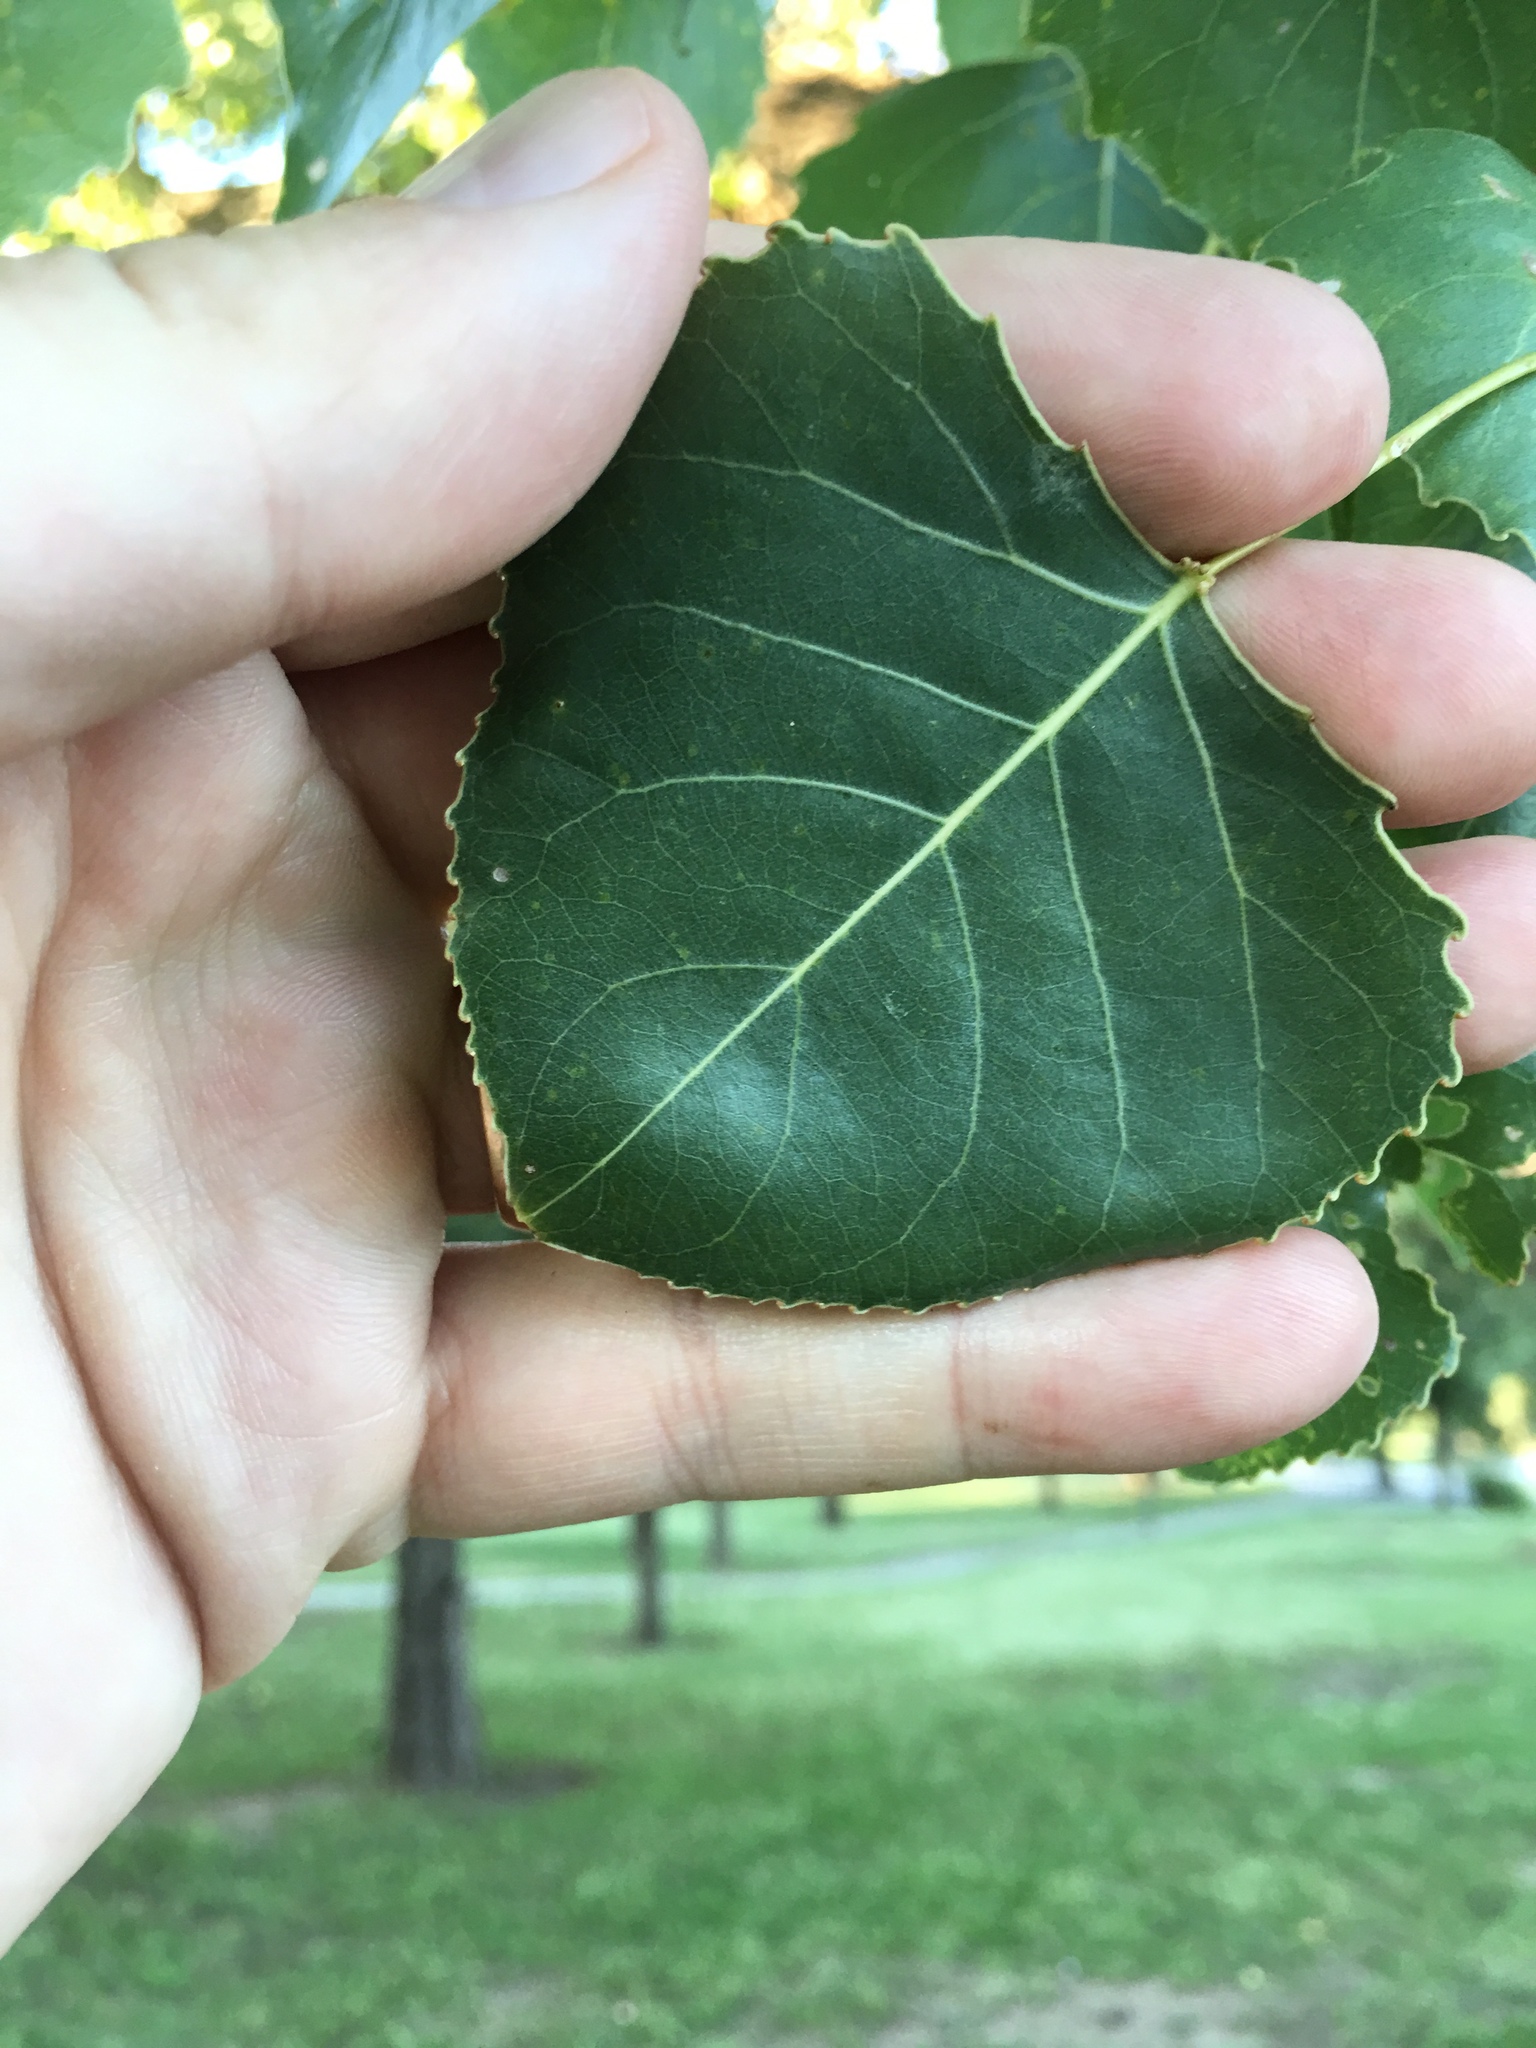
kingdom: Plantae
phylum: Tracheophyta
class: Magnoliopsida
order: Malpighiales
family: Salicaceae
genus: Populus
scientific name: Populus deltoides
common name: Eastern cottonwood
